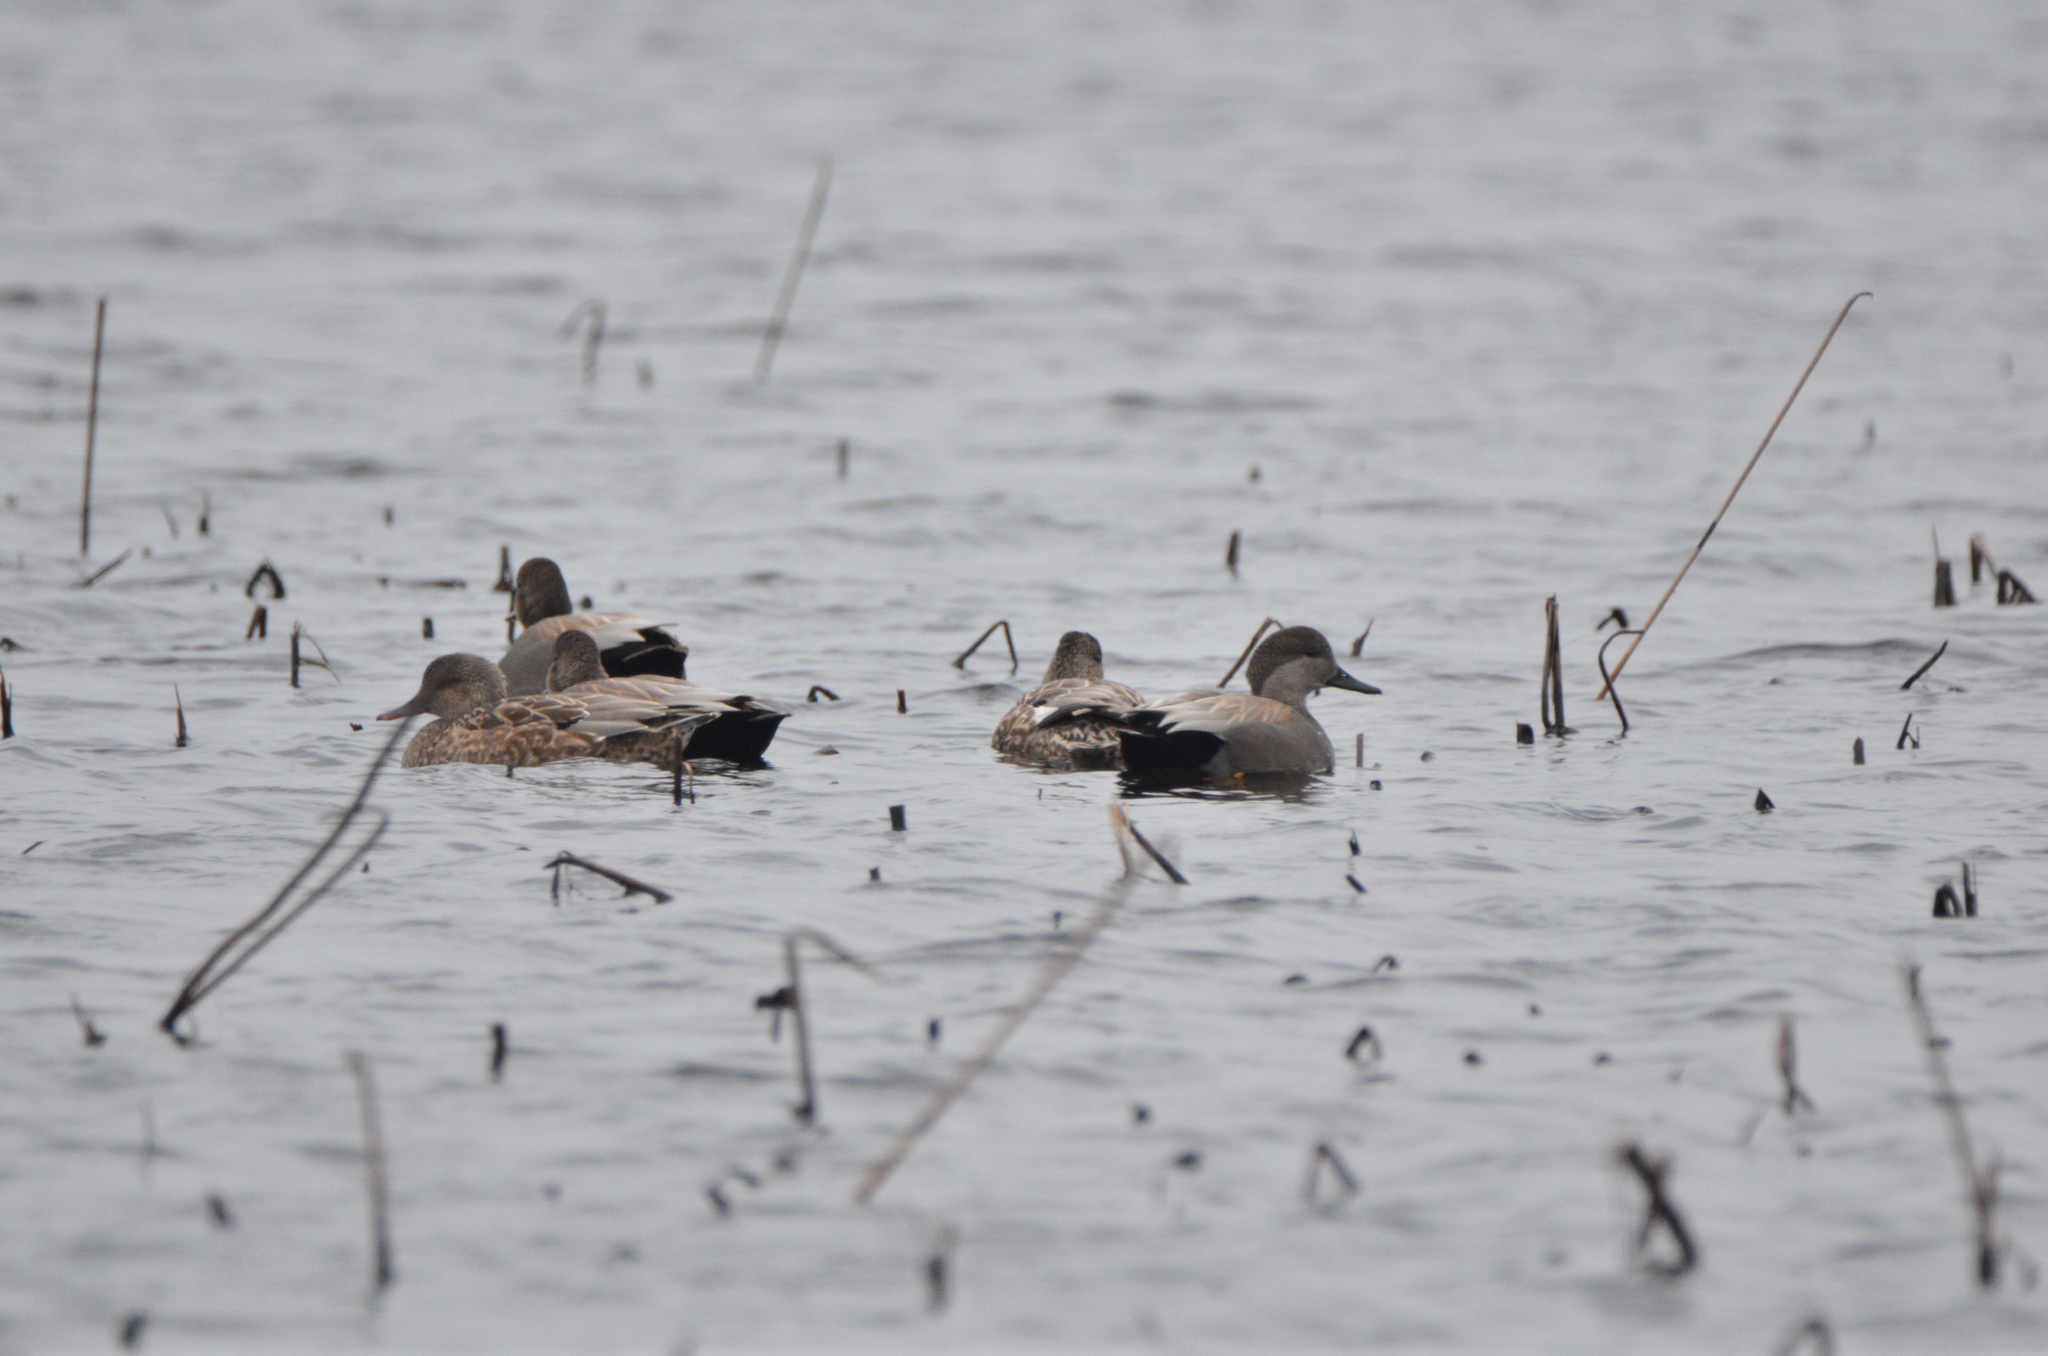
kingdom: Animalia
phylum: Chordata
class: Aves
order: Anseriformes
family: Anatidae
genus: Mareca
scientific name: Mareca strepera
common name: Gadwall
